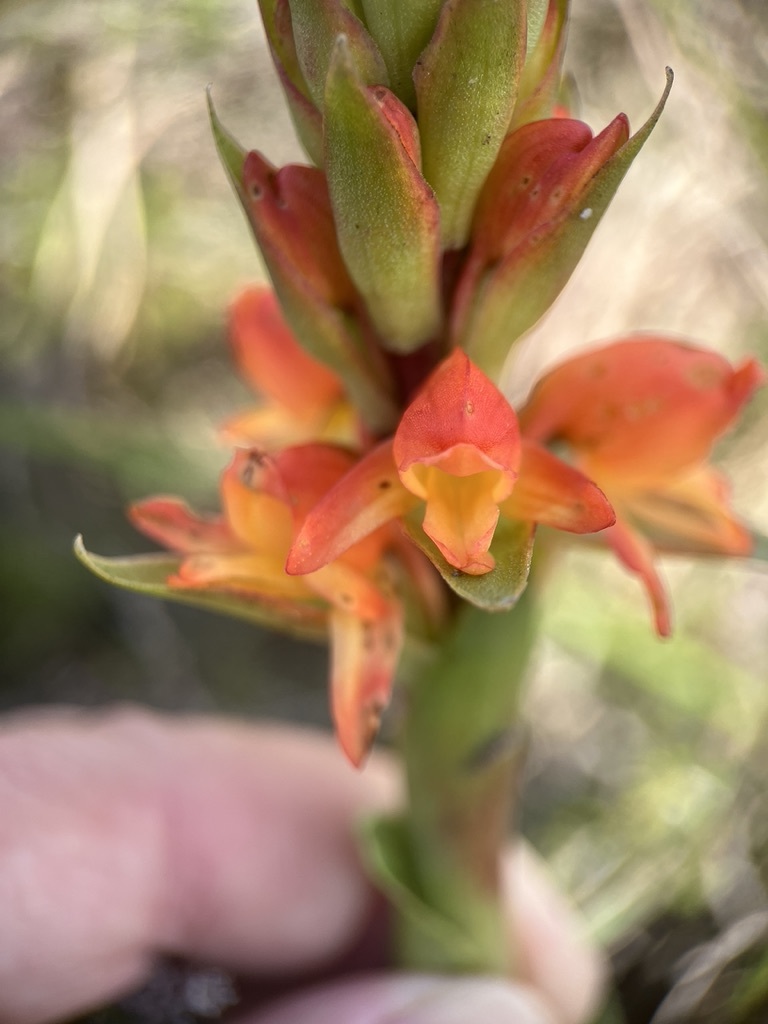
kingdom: Plantae
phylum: Tracheophyta
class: Liliopsida
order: Asparagales
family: Orchidaceae
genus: Satyrium
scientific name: Satyrium coriifolium
